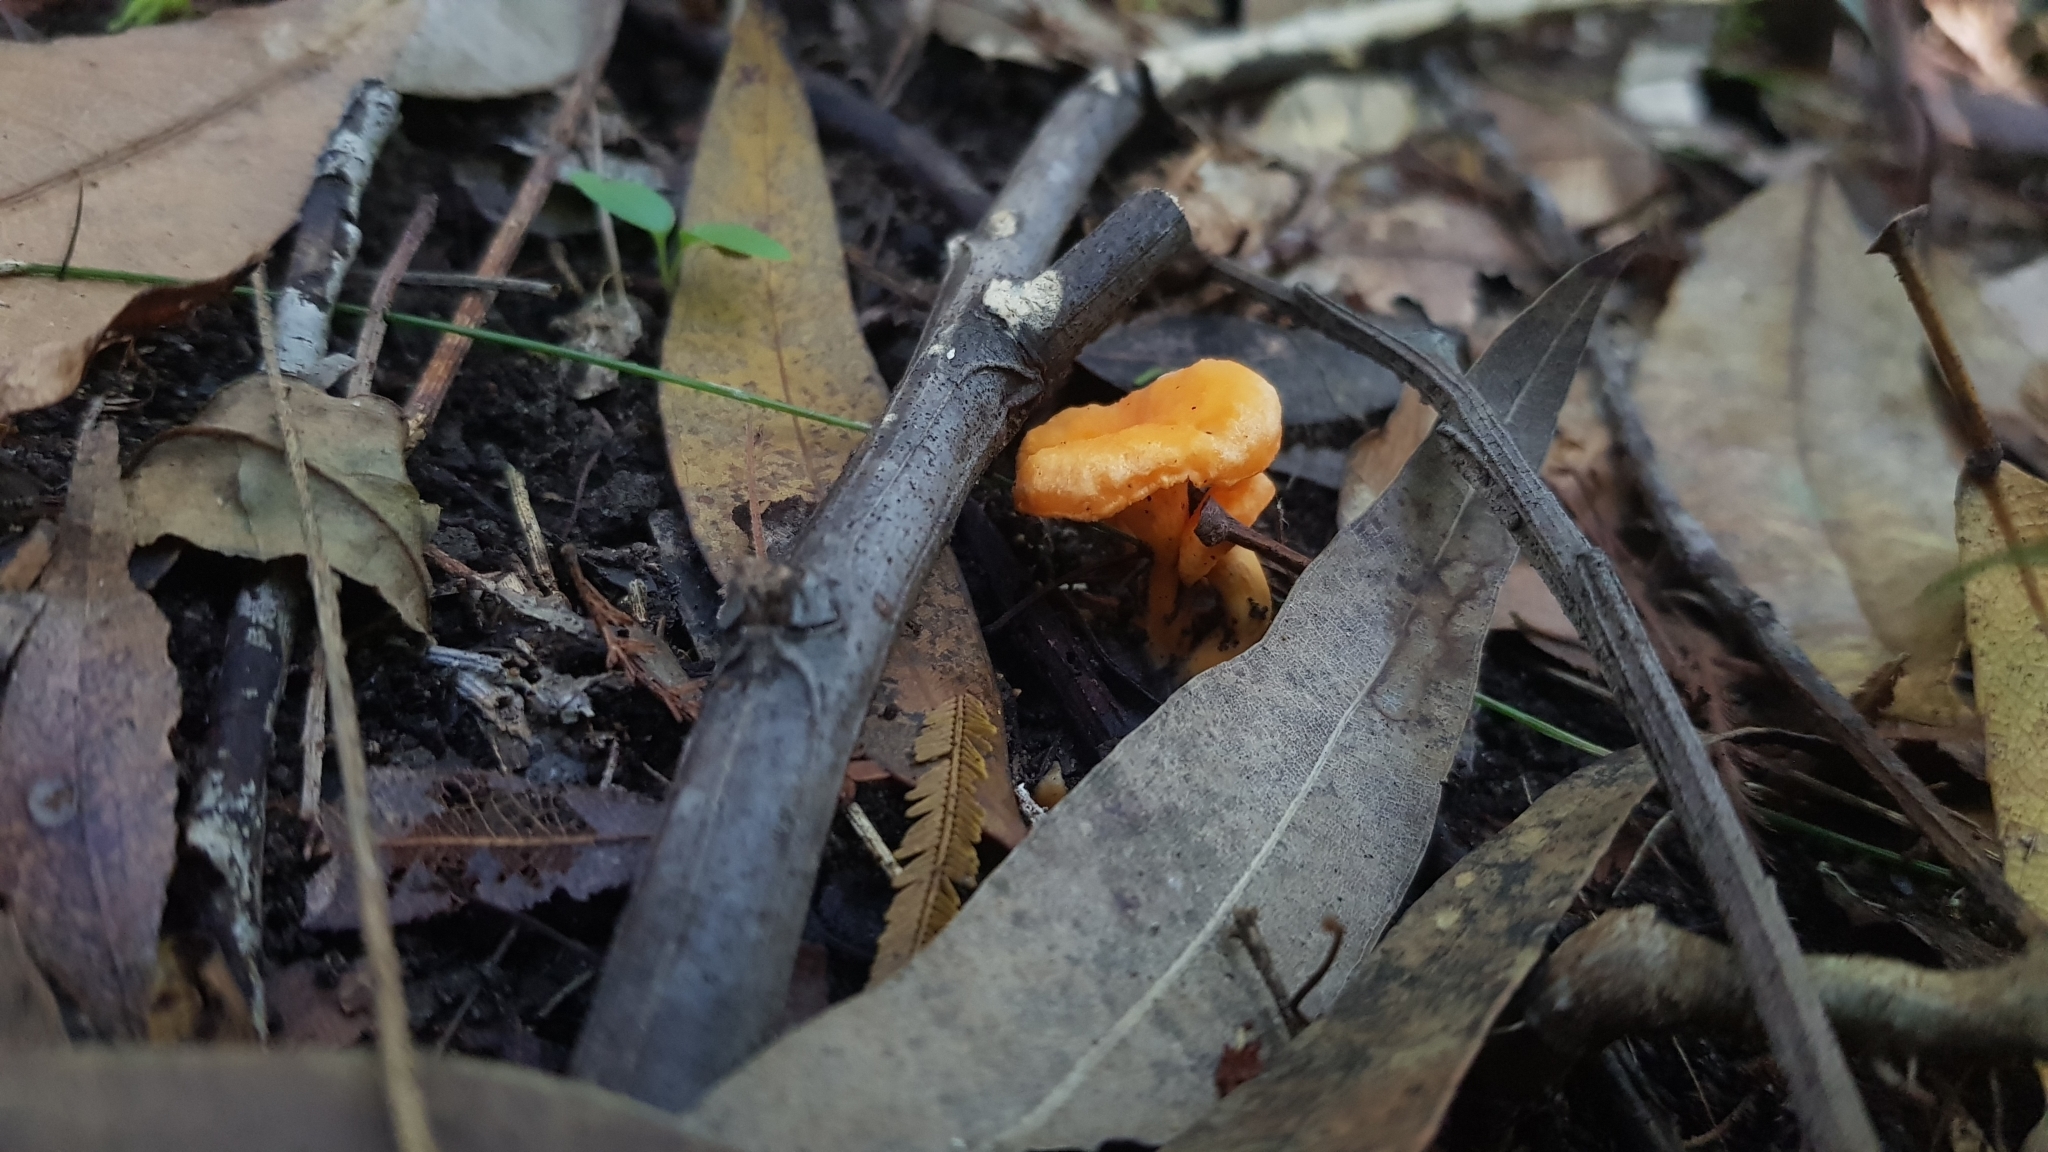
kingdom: Fungi
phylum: Basidiomycota
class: Agaricomycetes
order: Cantharellales
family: Hydnaceae
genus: Cantharellus
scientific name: Cantharellus
